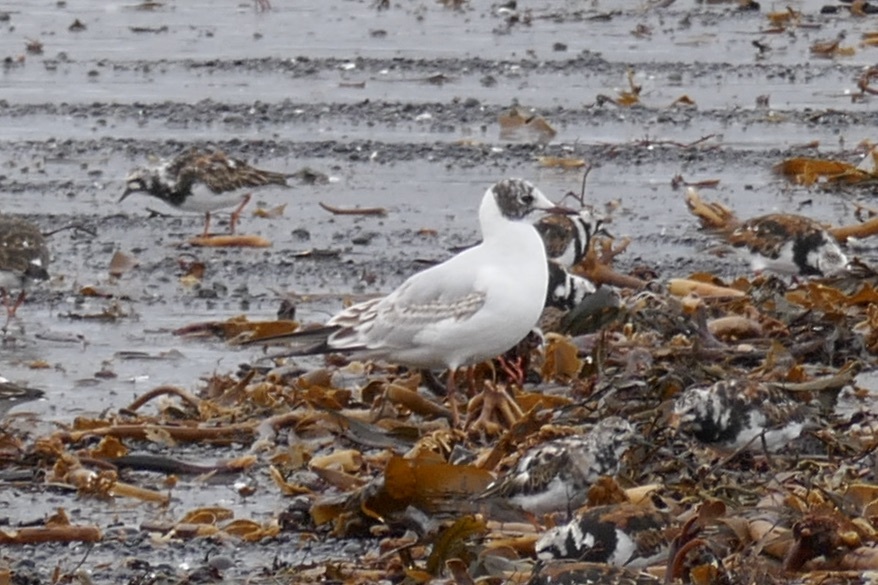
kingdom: Animalia
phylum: Chordata
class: Aves
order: Charadriiformes
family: Laridae
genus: Chroicocephalus
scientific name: Chroicocephalus ridibundus
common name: Black-headed gull
